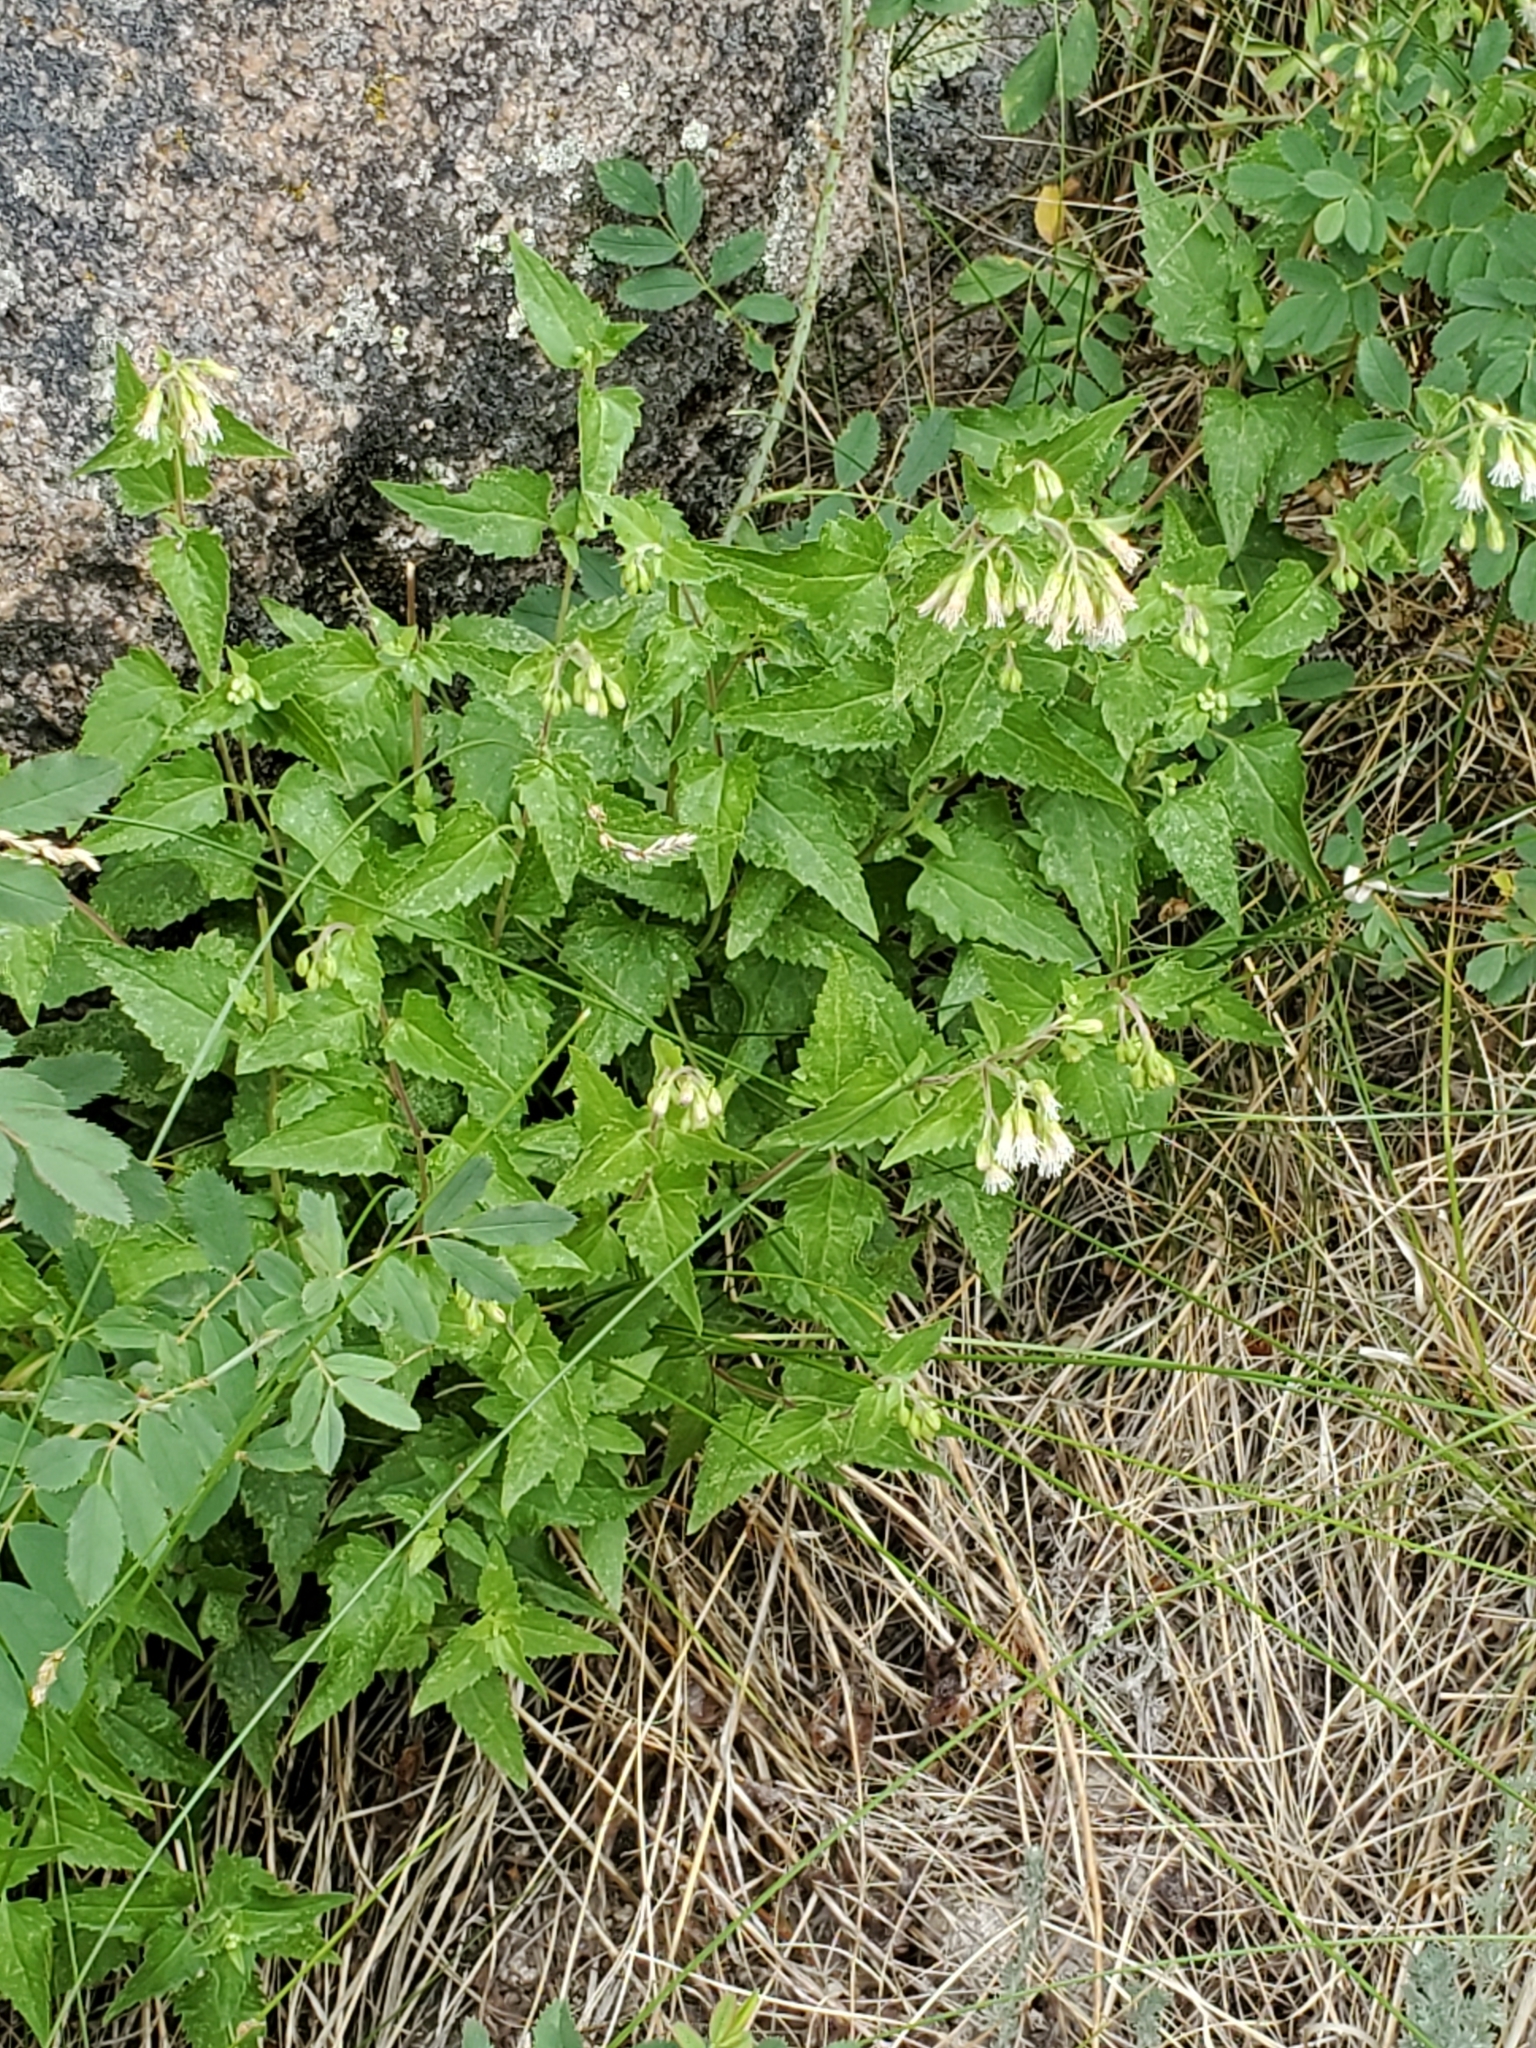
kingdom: Plantae
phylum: Tracheophyta
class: Magnoliopsida
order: Asterales
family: Asteraceae
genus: Brickelliastrum
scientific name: Brickelliastrum fendleri
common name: Fendler's-brickellbush
